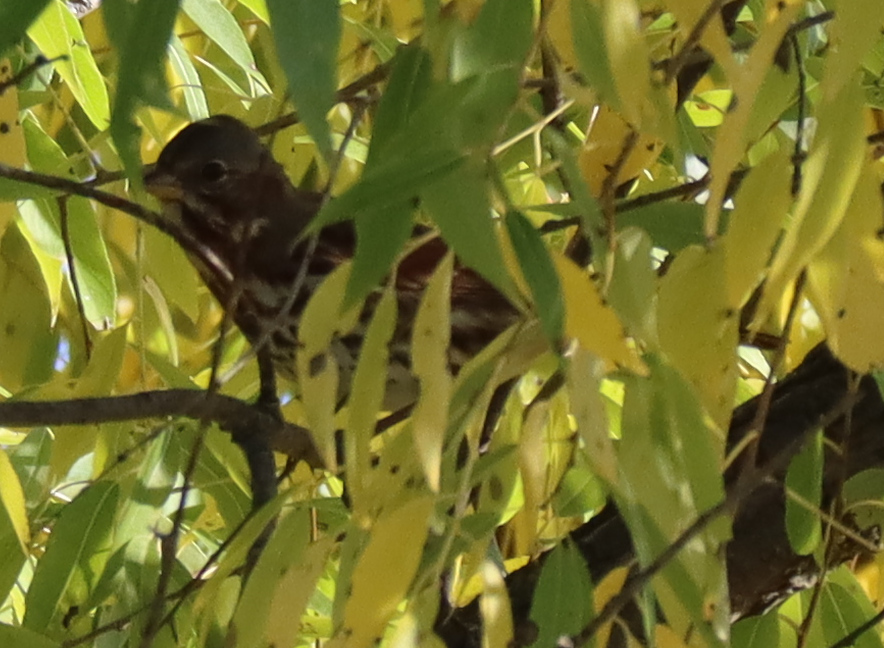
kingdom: Animalia
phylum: Chordata
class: Aves
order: Passeriformes
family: Passerellidae
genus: Passerella
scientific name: Passerella iliaca
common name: Fox sparrow
